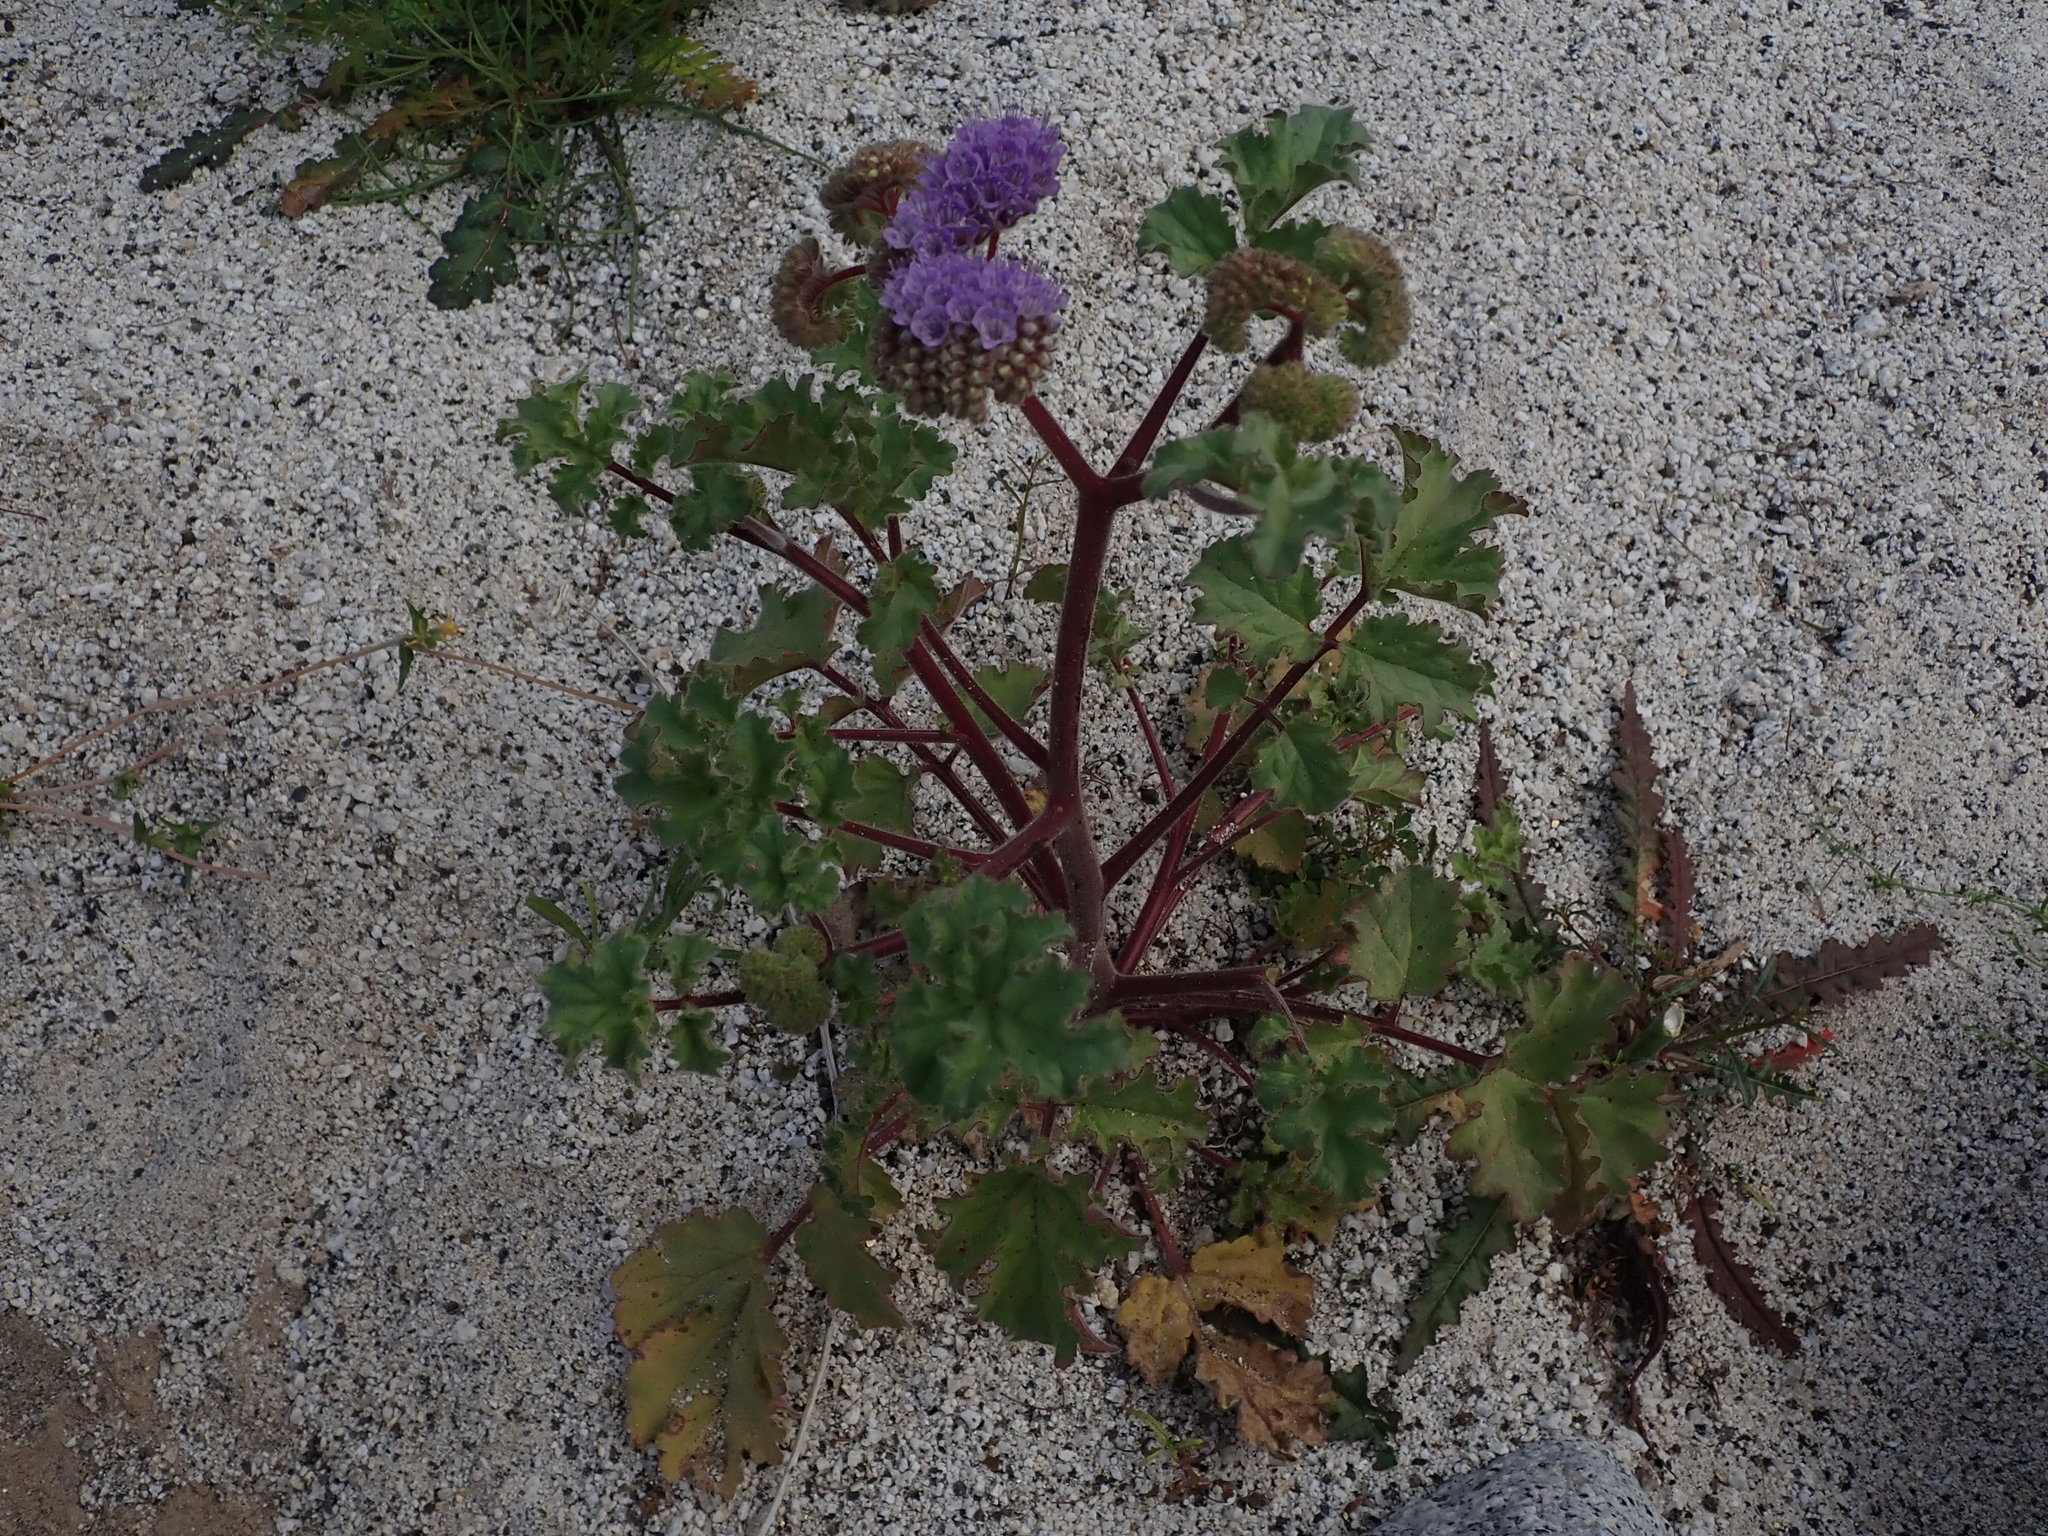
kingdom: Plantae
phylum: Tracheophyta
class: Magnoliopsida
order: Boraginales
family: Hydrophyllaceae
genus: Phacelia
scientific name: Phacelia pedicellata
